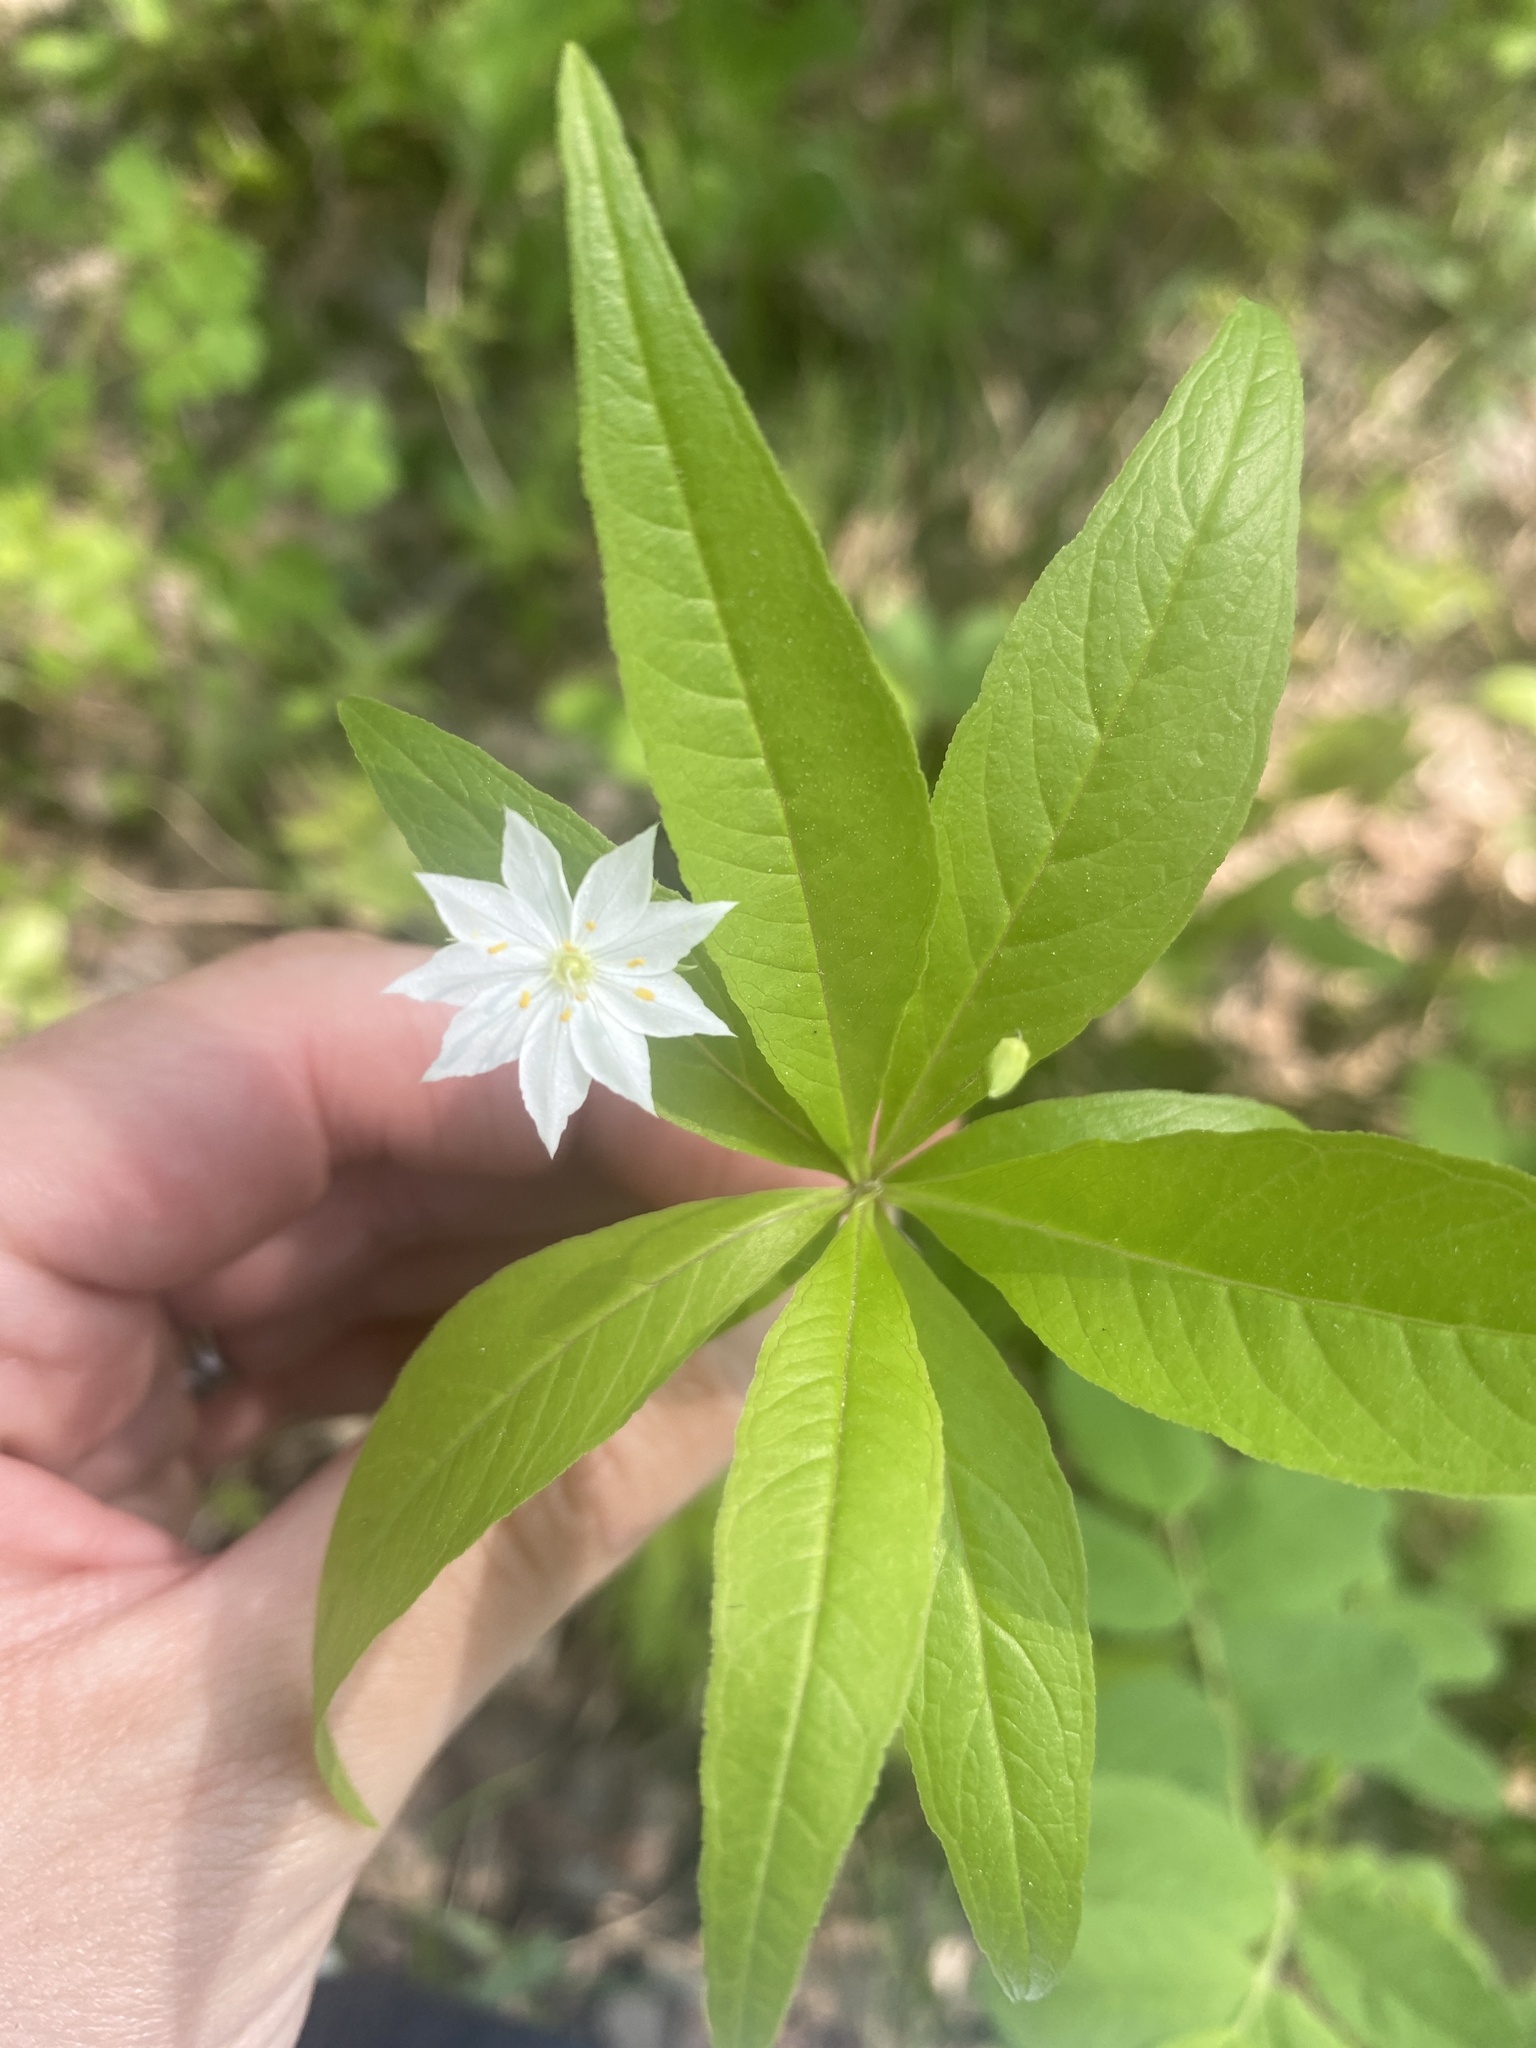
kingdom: Plantae
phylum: Tracheophyta
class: Magnoliopsida
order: Ericales
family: Primulaceae
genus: Lysimachia
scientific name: Lysimachia borealis
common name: American starflower
